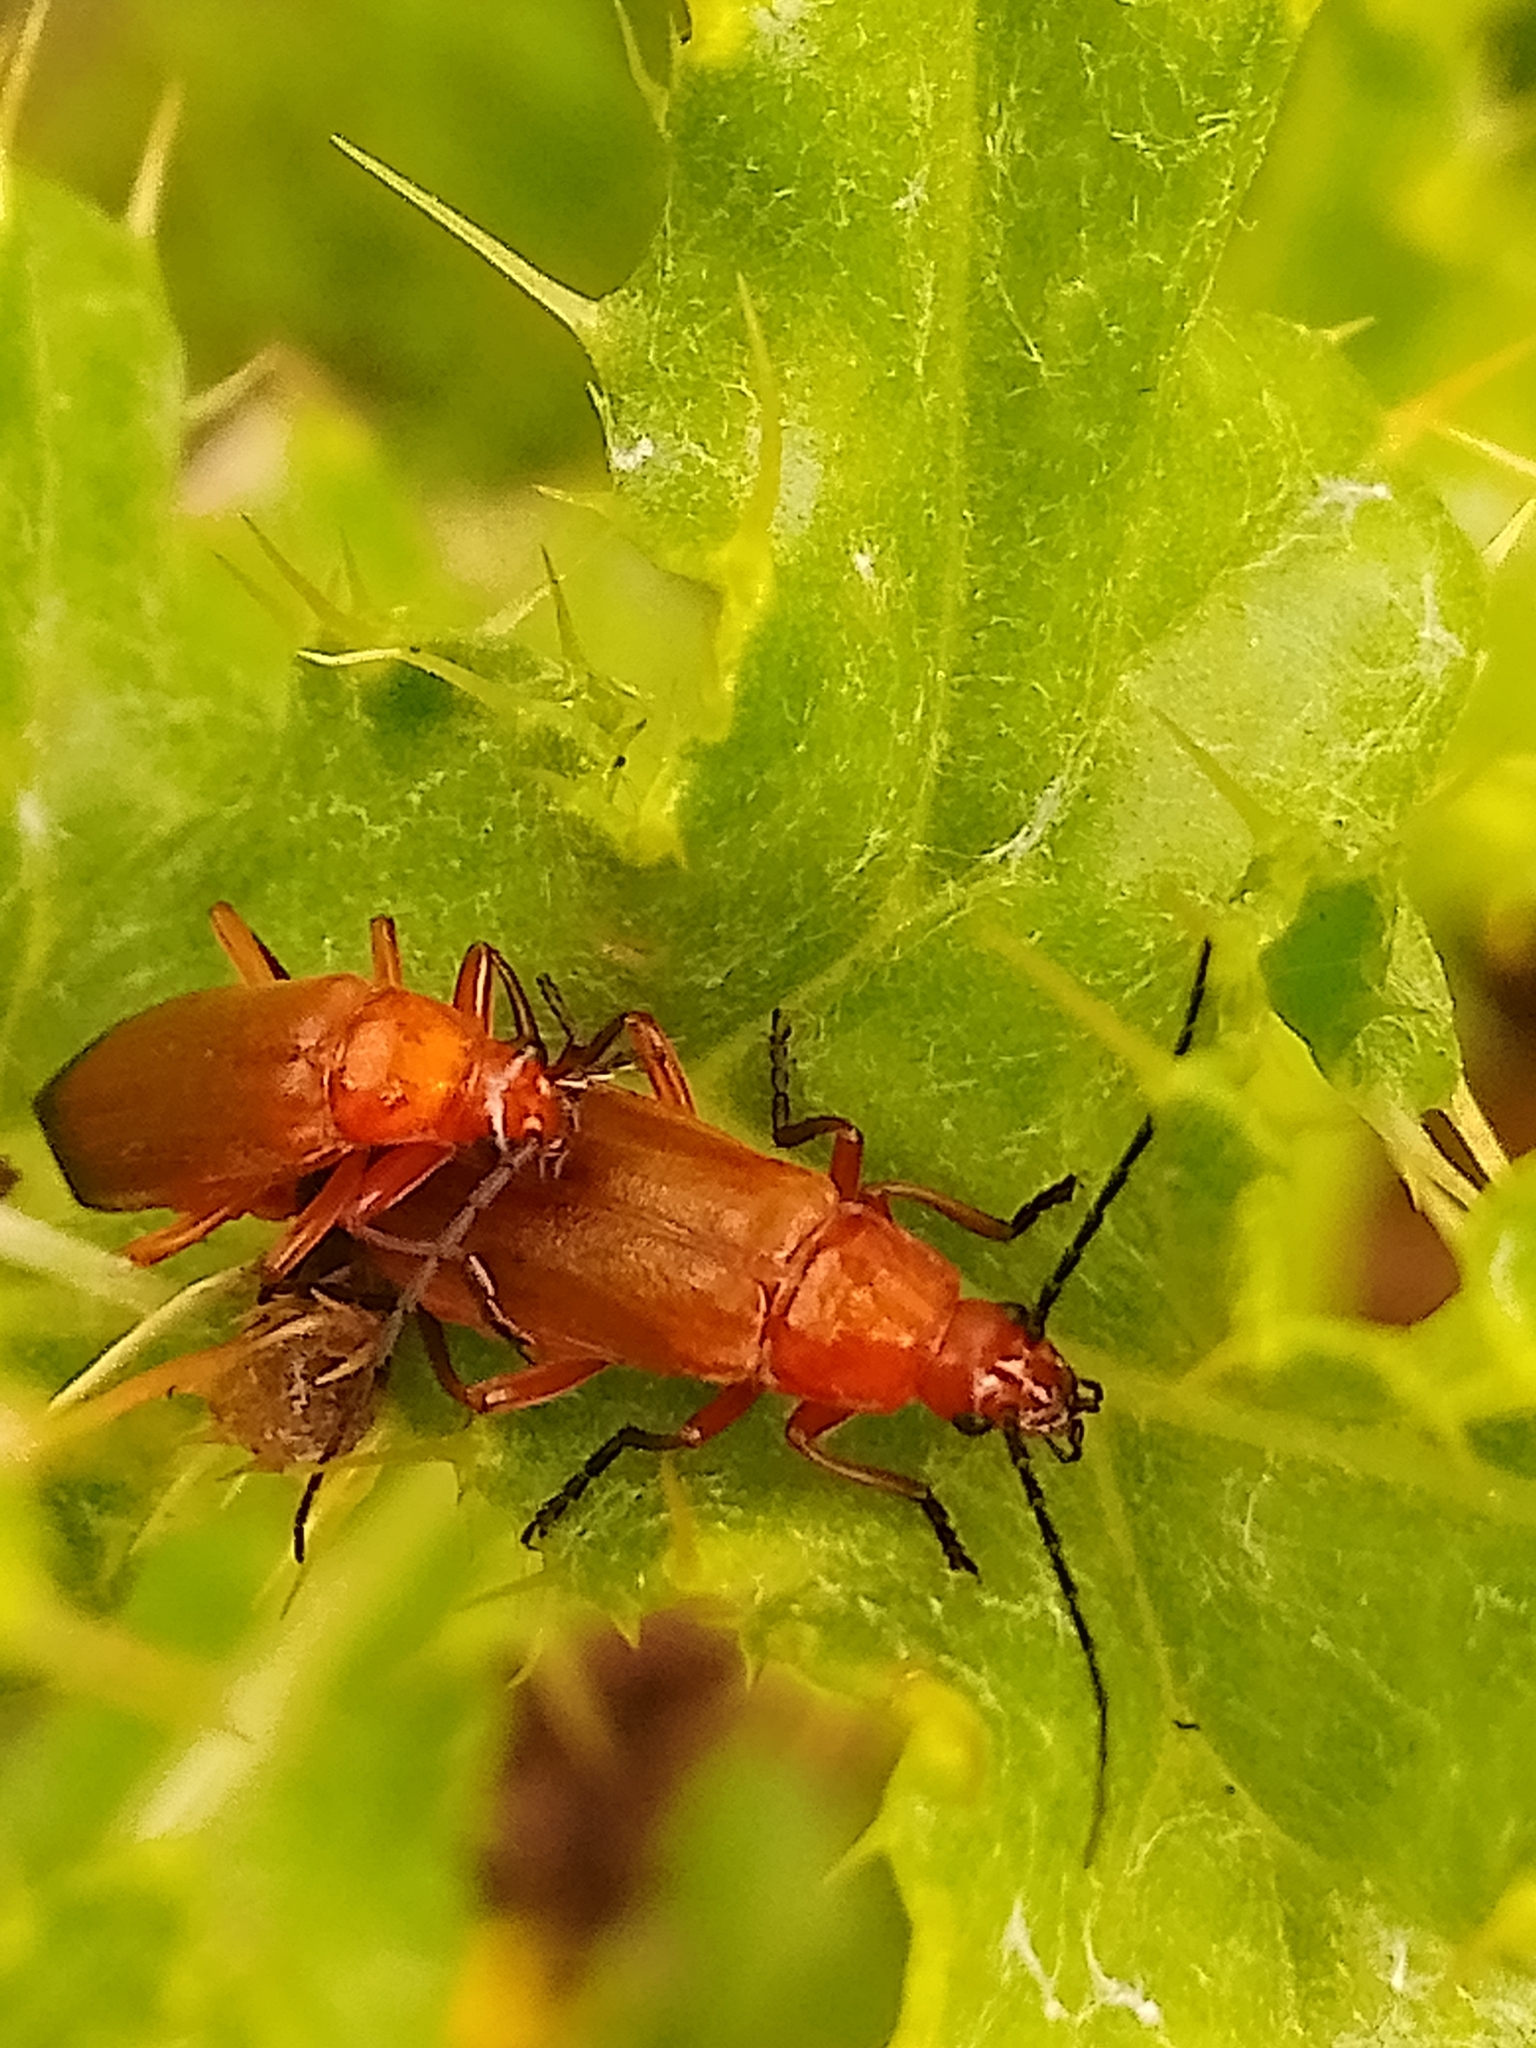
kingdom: Animalia
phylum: Arthropoda
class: Insecta
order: Coleoptera
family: Cantharidae
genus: Rhagonycha
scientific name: Rhagonycha fulva
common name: Common red soldier beetle
